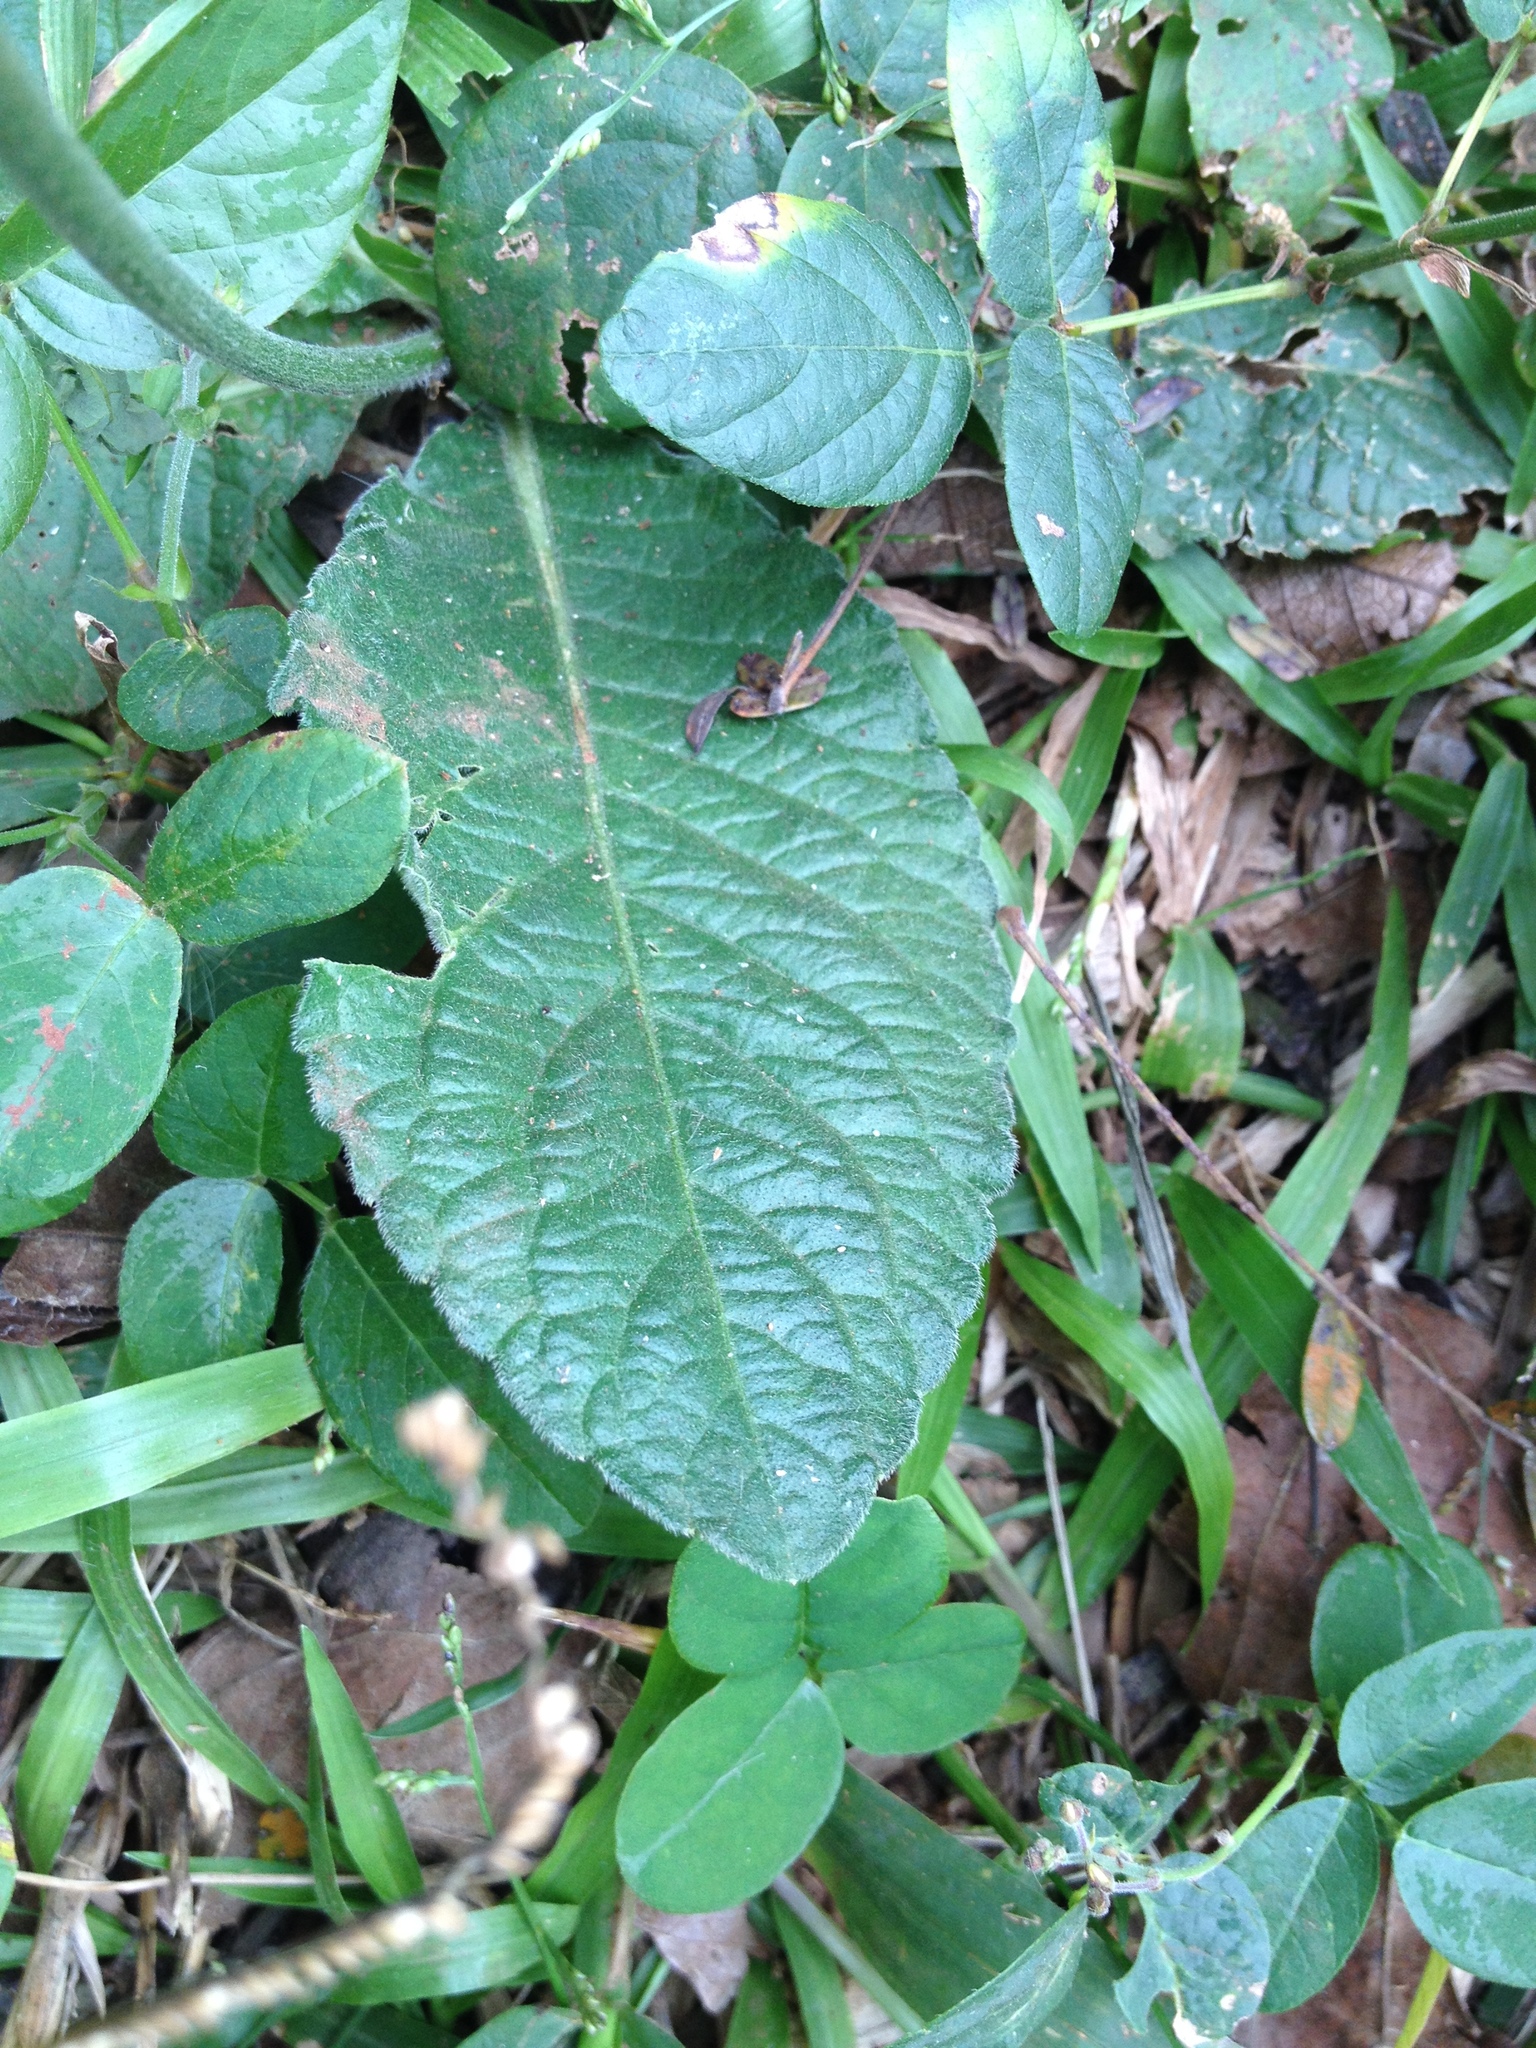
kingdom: Plantae
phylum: Tracheophyta
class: Magnoliopsida
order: Asterales
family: Asteraceae
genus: Elephantopus
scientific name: Elephantopus mollis
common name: Soft elephantsfoot
